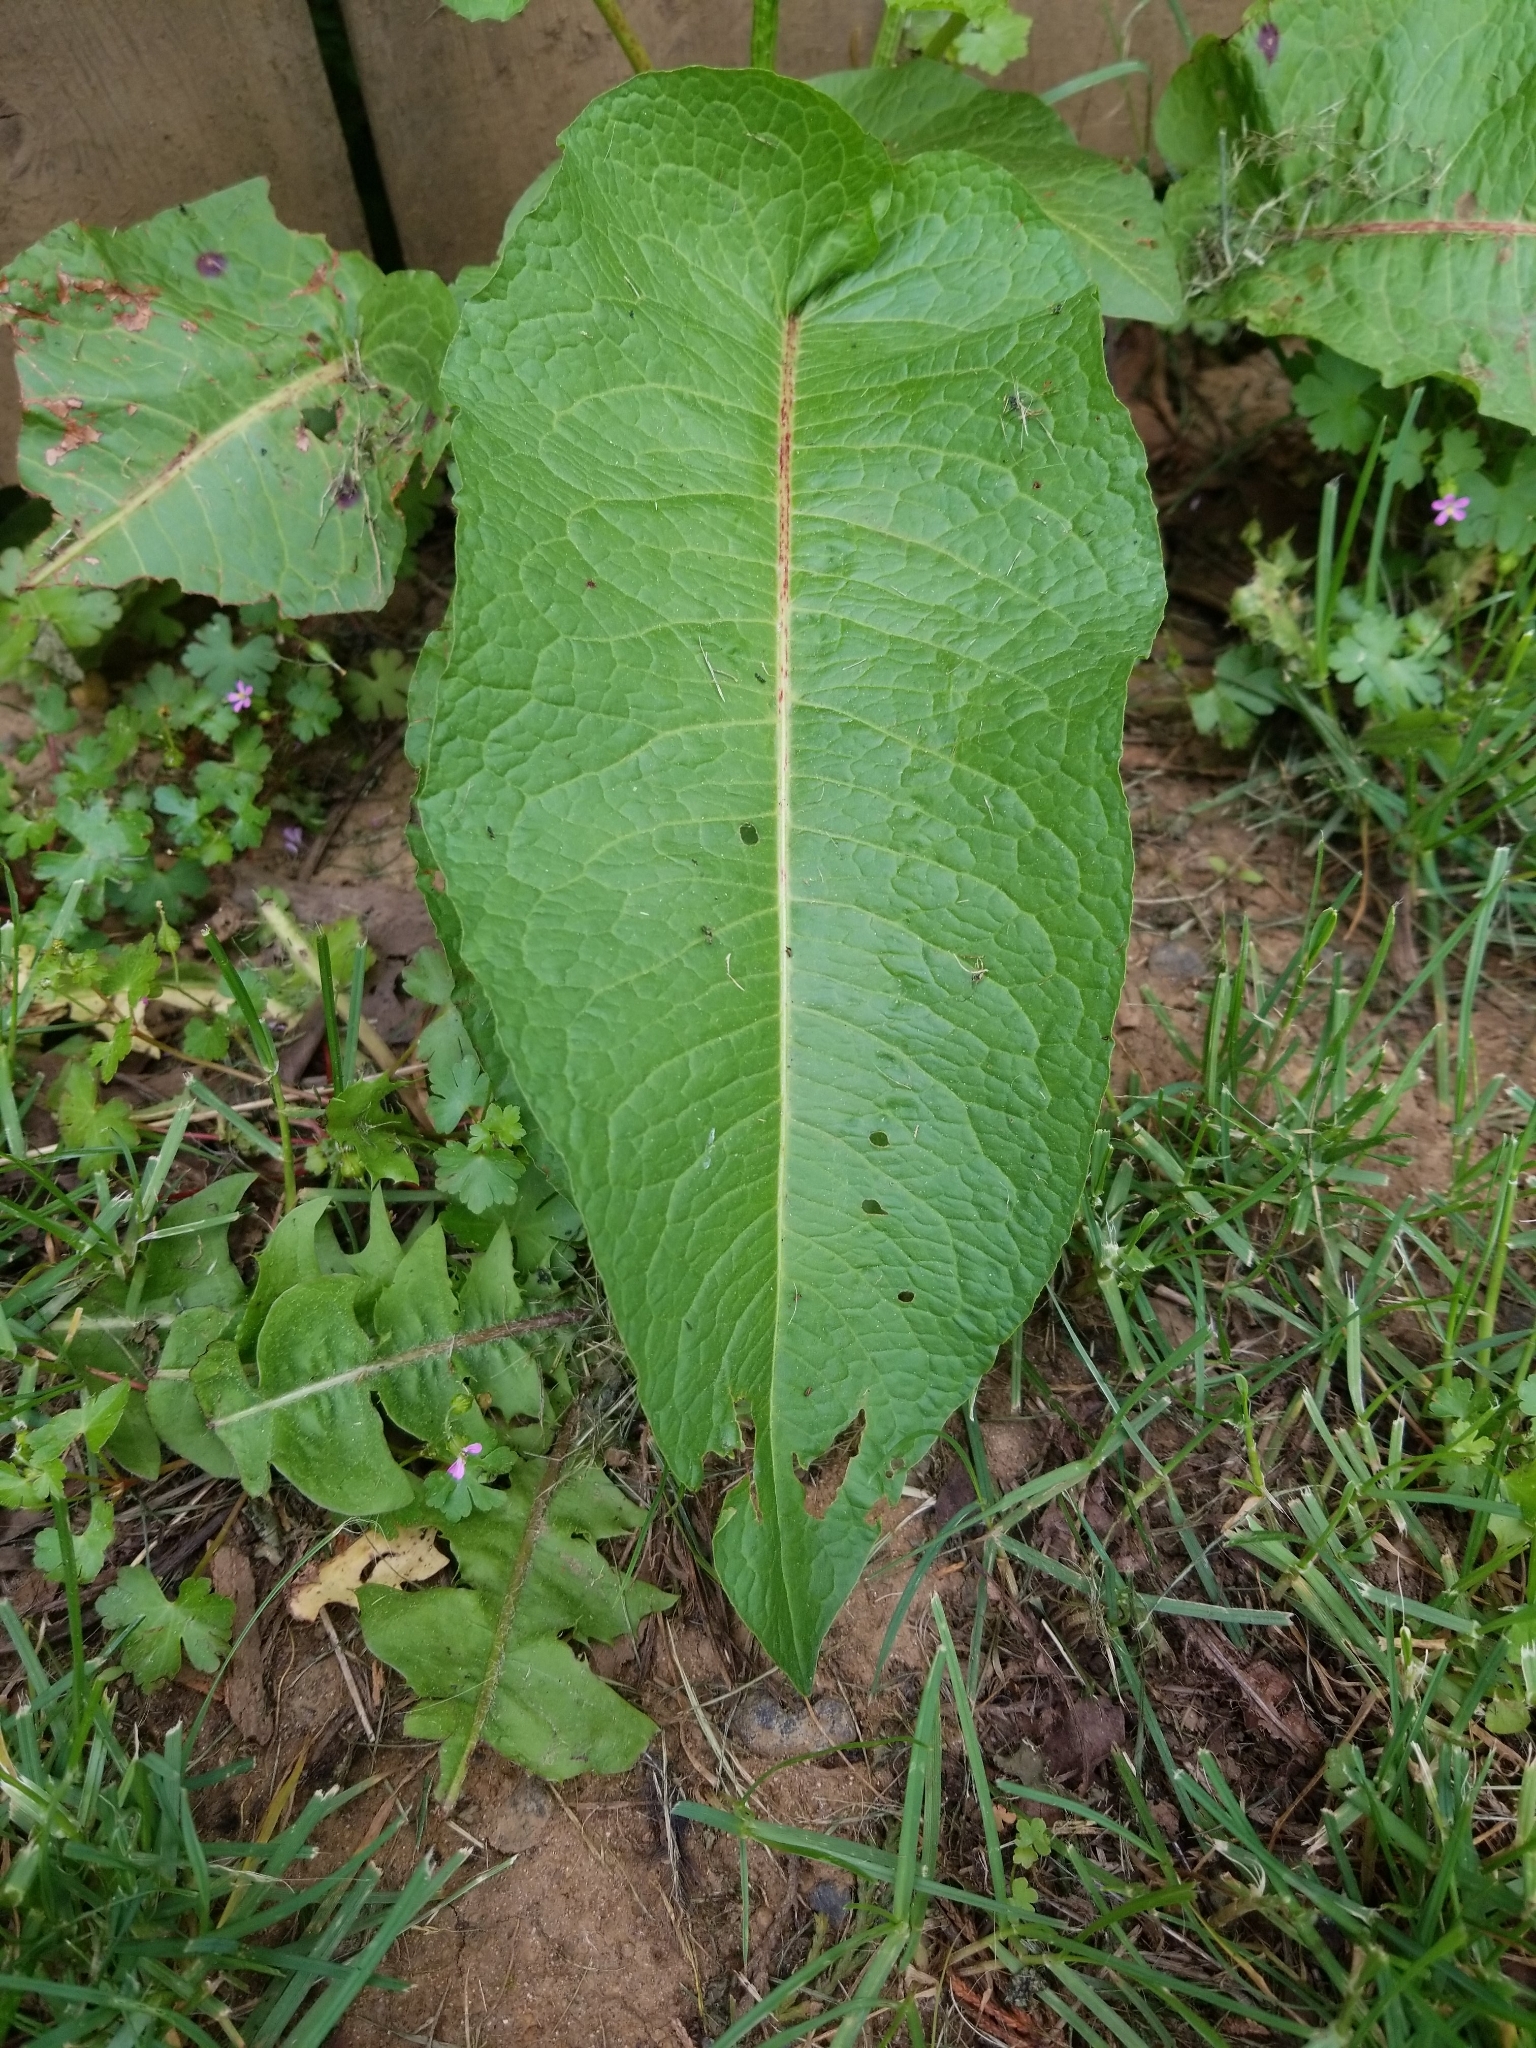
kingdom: Plantae
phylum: Tracheophyta
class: Magnoliopsida
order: Caryophyllales
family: Polygonaceae
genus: Rumex
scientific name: Rumex obtusifolius
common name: Bitter dock
